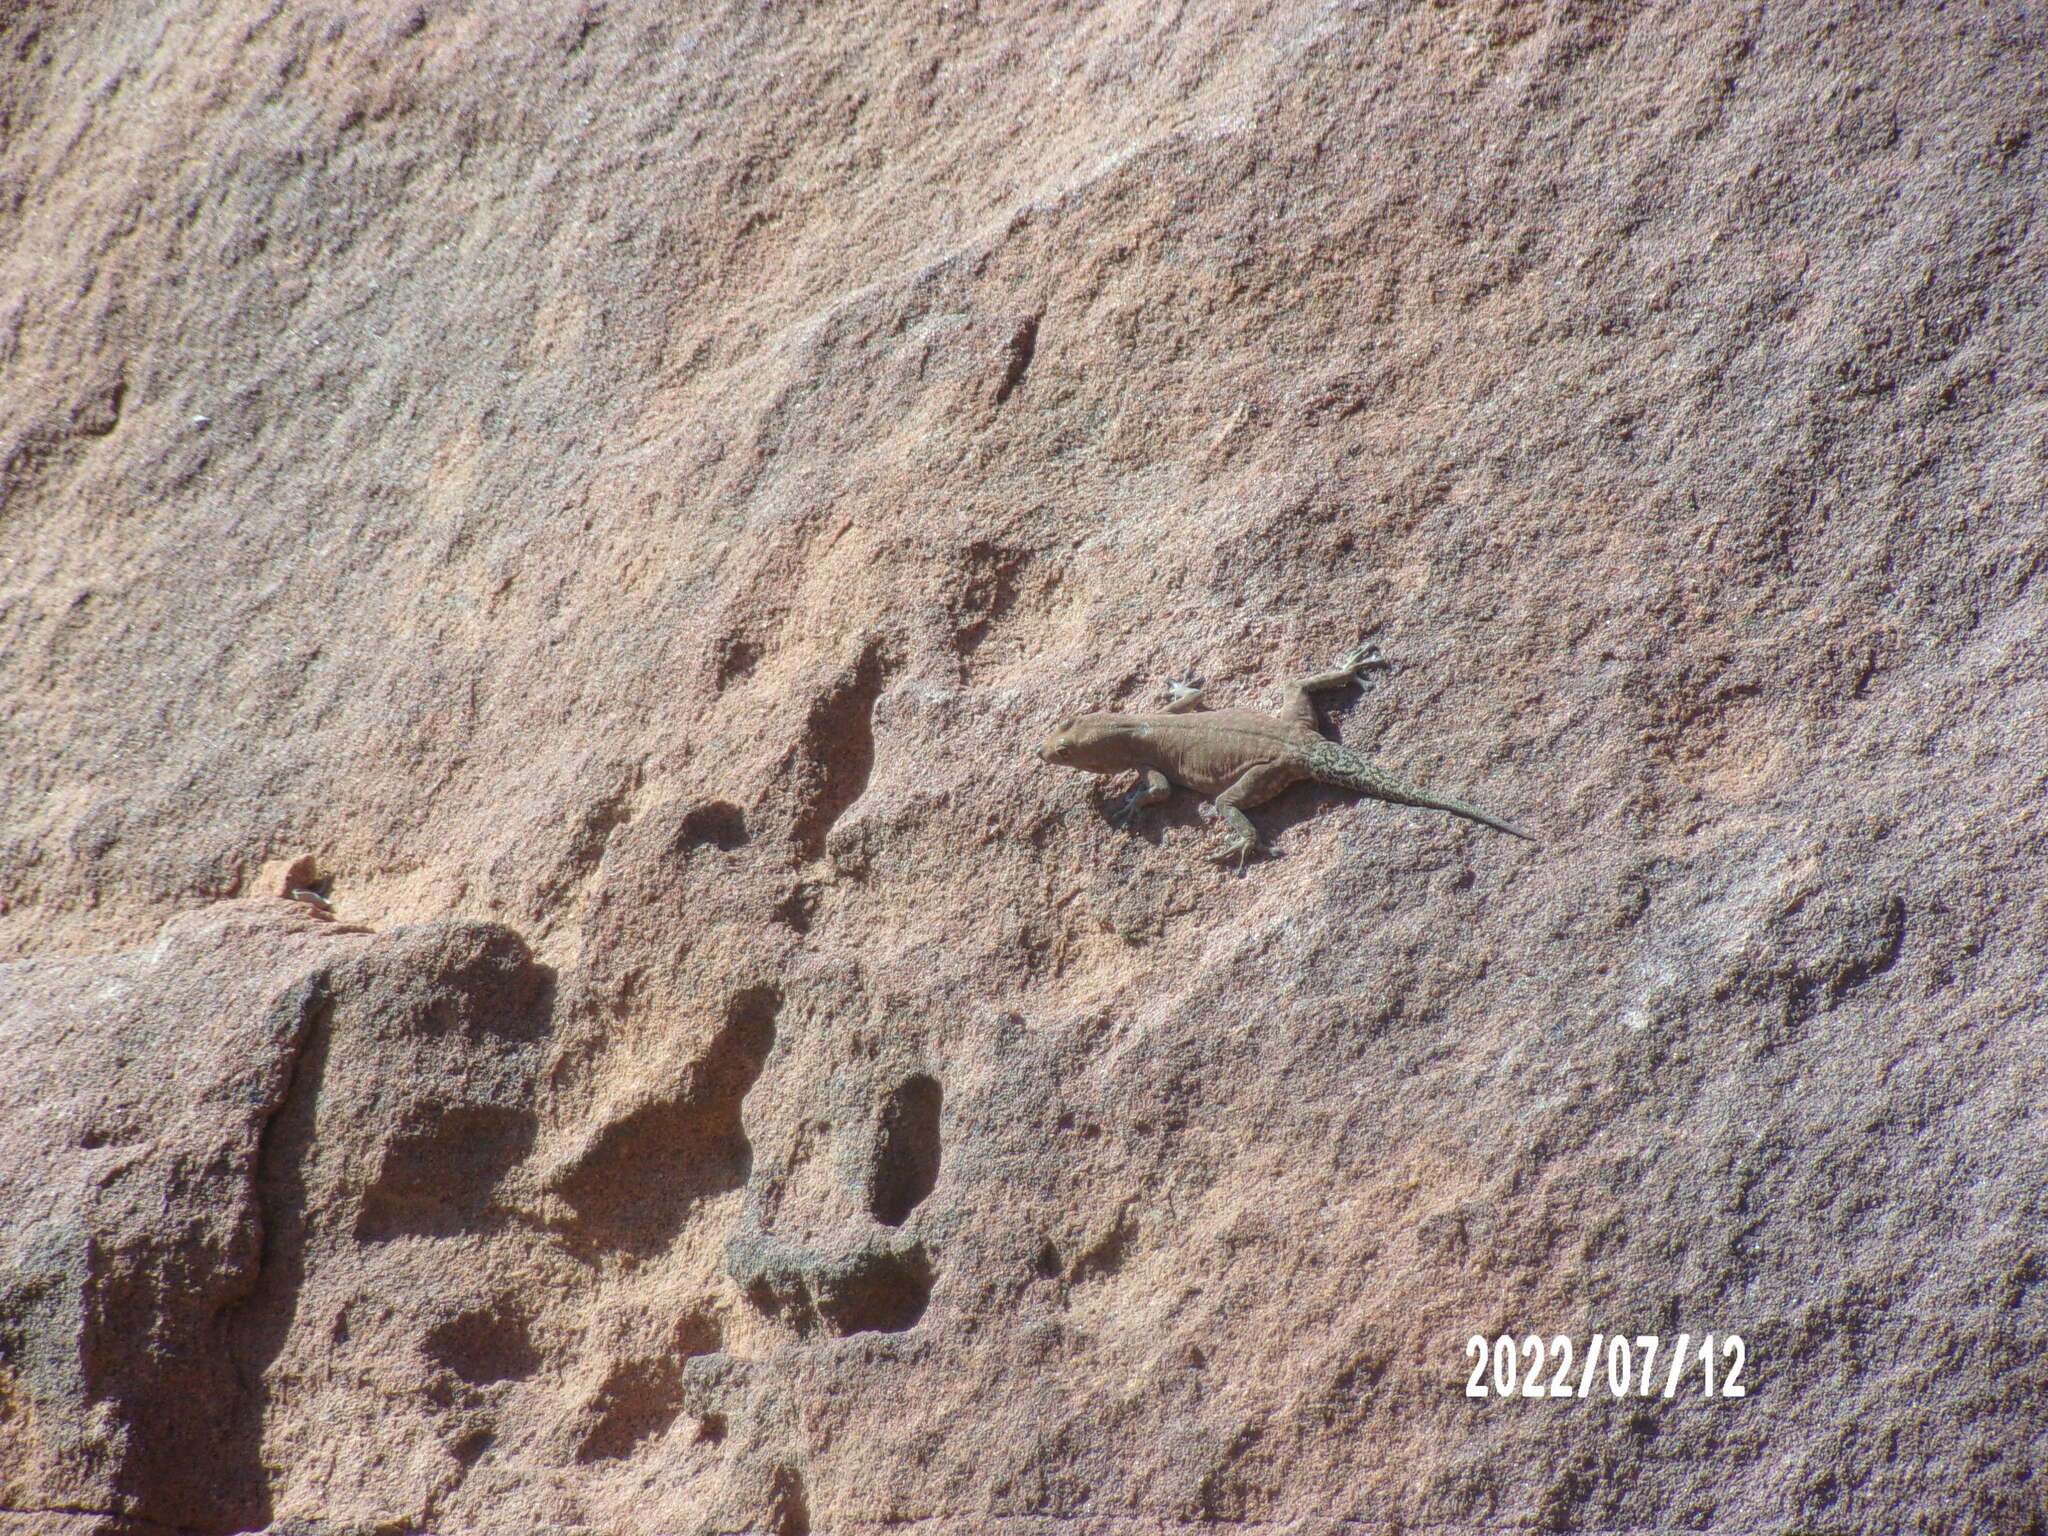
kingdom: Animalia
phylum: Chordata
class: Squamata
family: Gekkonidae
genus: Rhoptropus
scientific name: Rhoptropus bradfieldi
